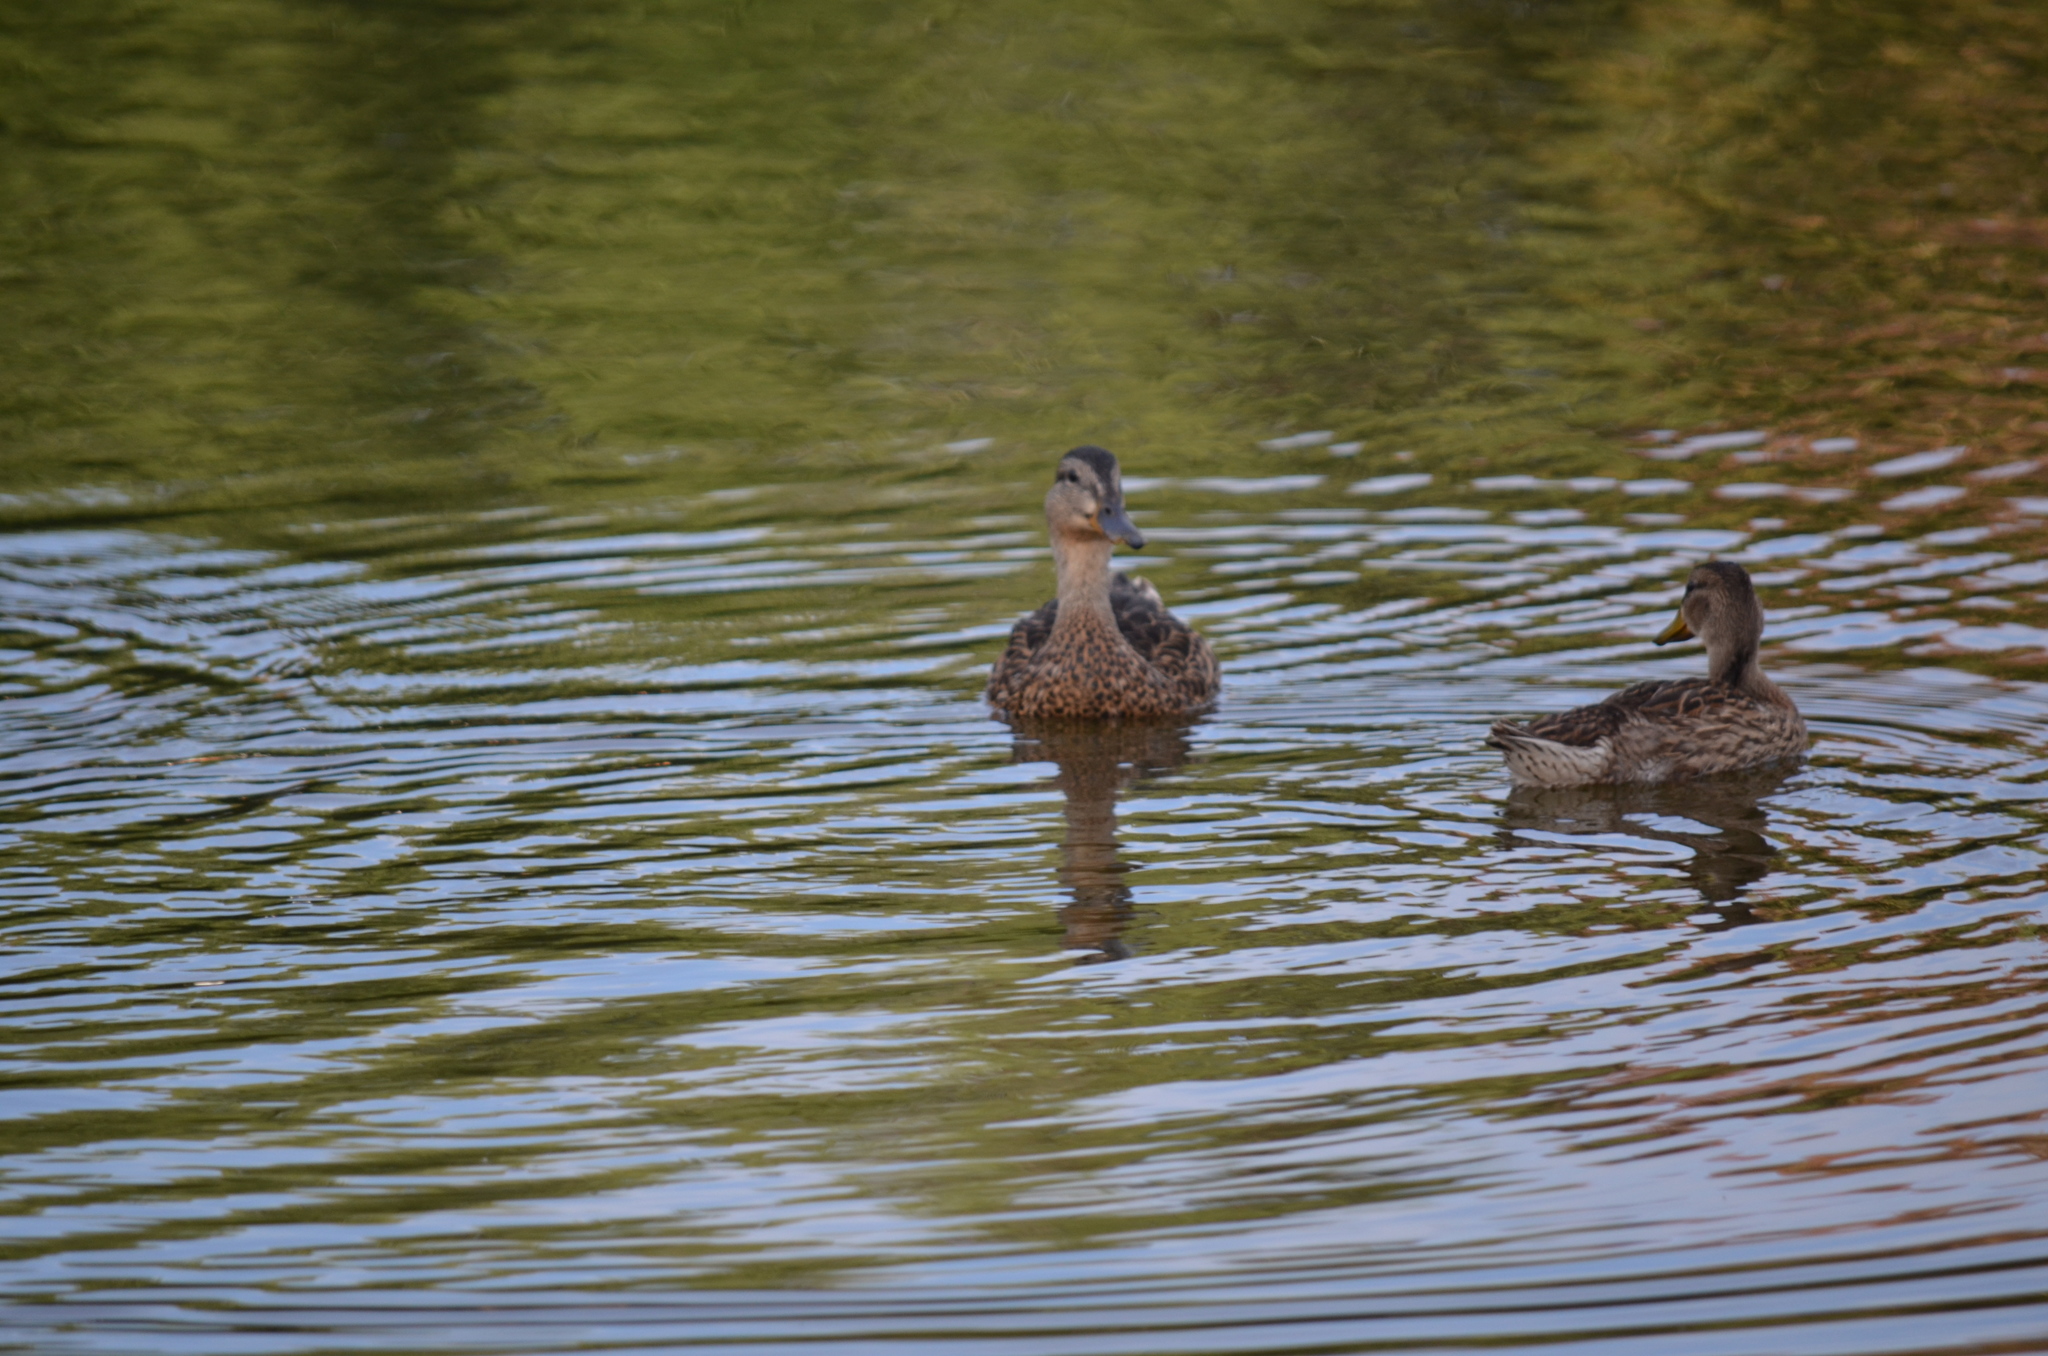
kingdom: Animalia
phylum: Chordata
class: Aves
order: Anseriformes
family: Anatidae
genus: Anas
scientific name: Anas platyrhynchos
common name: Mallard
